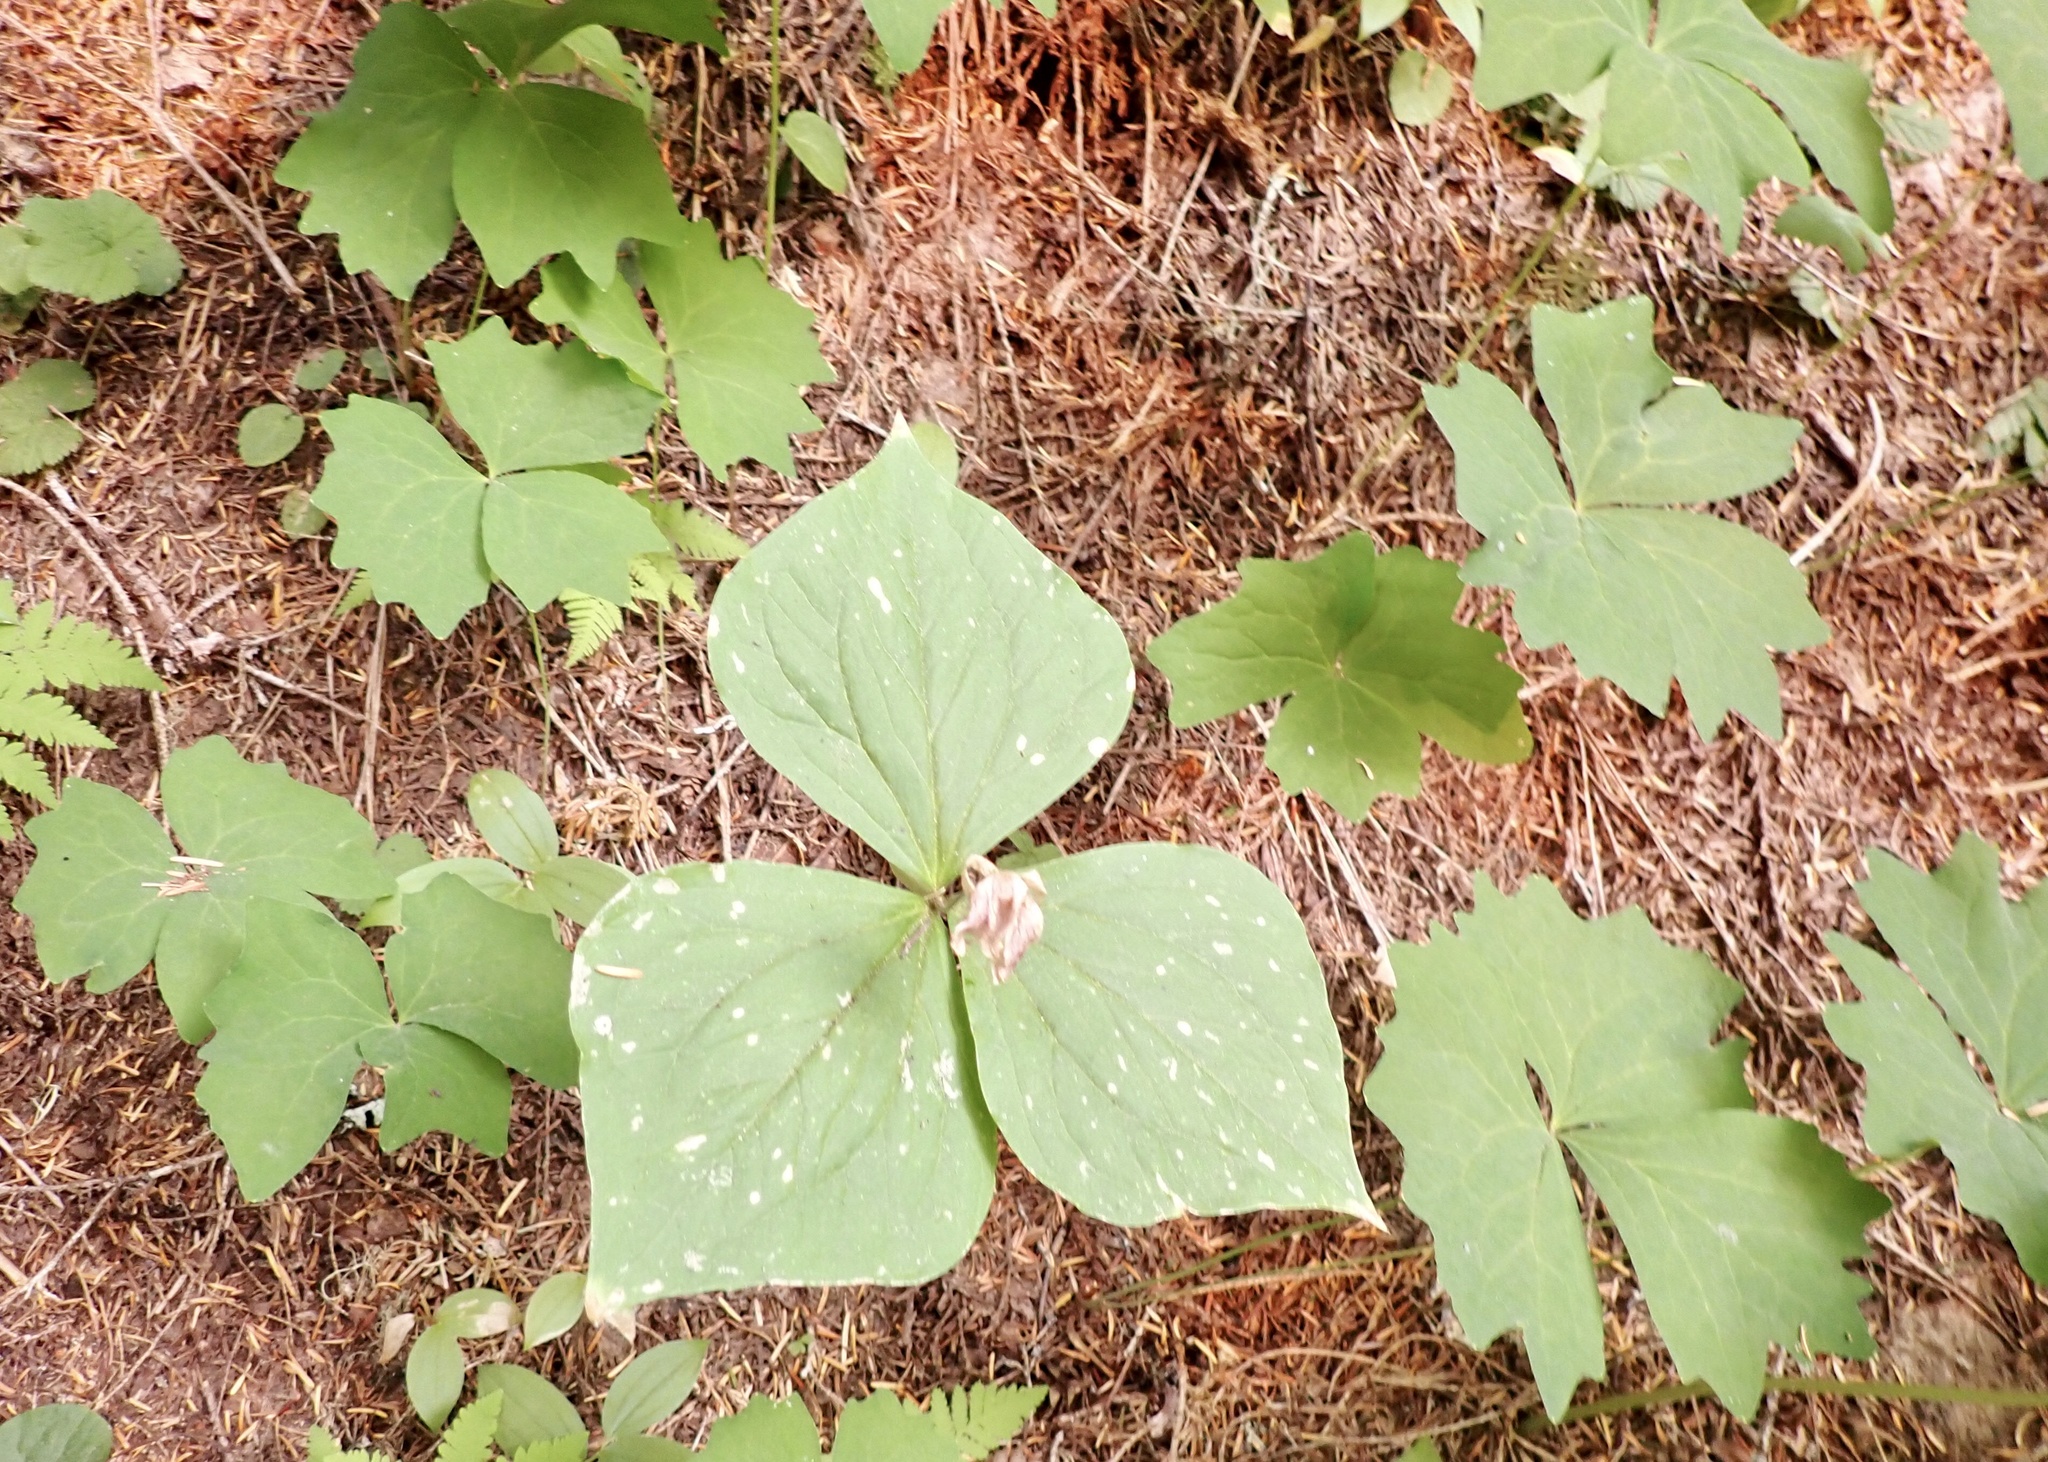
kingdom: Plantae
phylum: Tracheophyta
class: Liliopsida
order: Liliales
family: Melanthiaceae
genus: Trillium
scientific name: Trillium ovatum
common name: Pacific trillium
